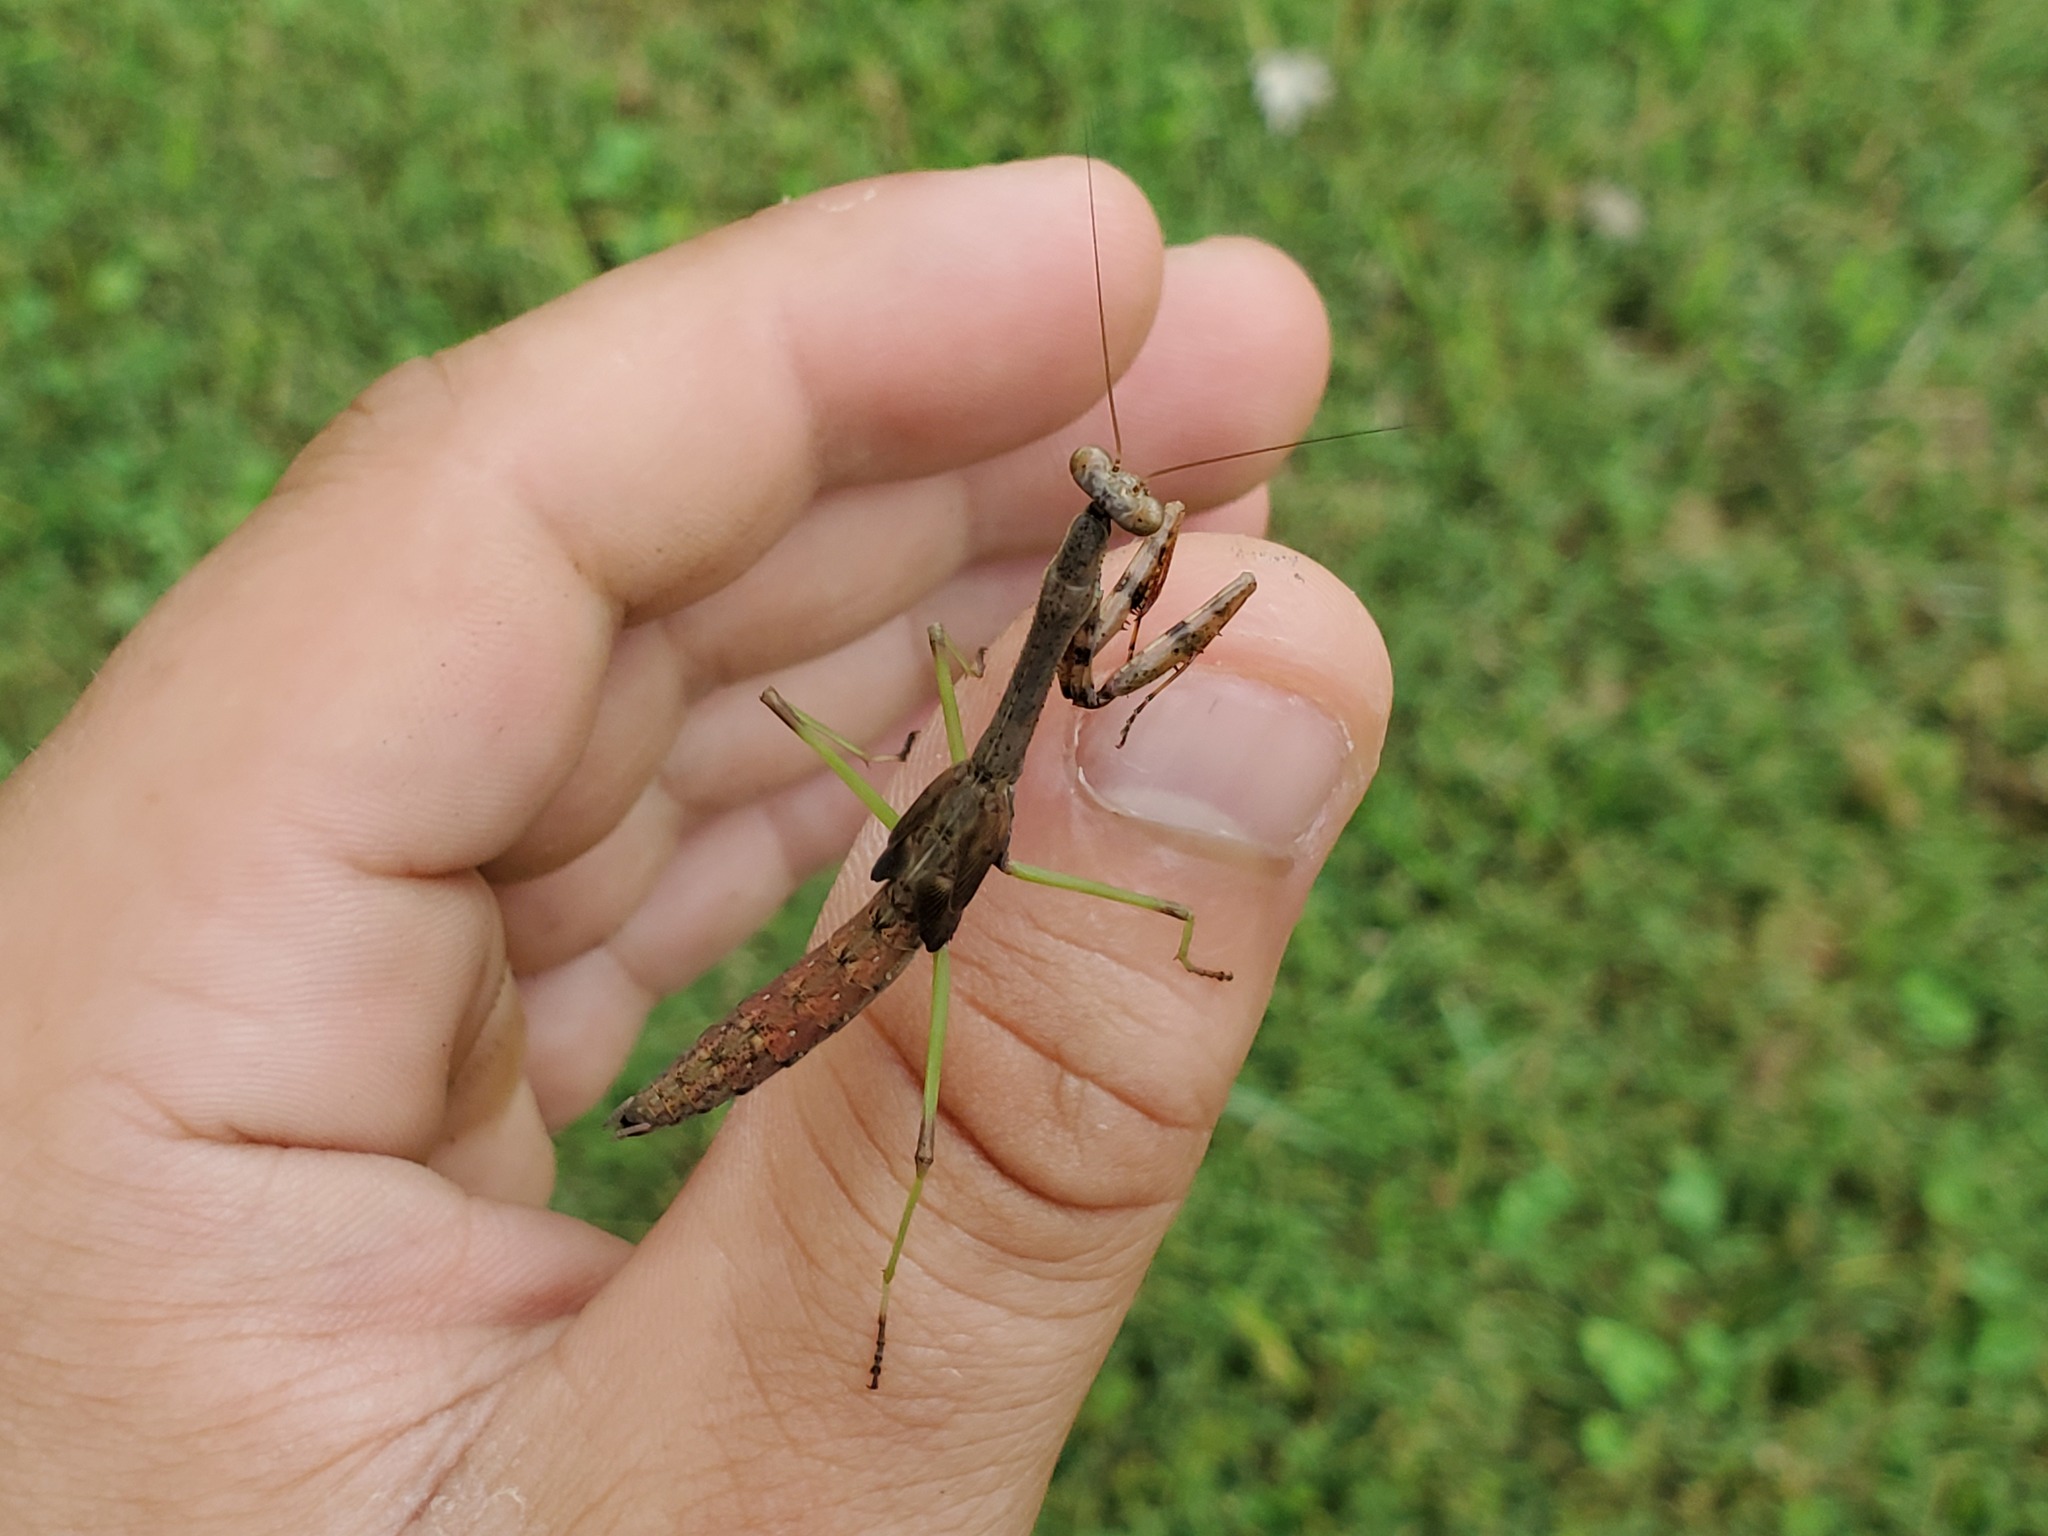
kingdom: Animalia
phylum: Arthropoda
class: Insecta
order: Mantodea
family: Mantidae
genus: Stagmomantis
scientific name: Stagmomantis carolina
